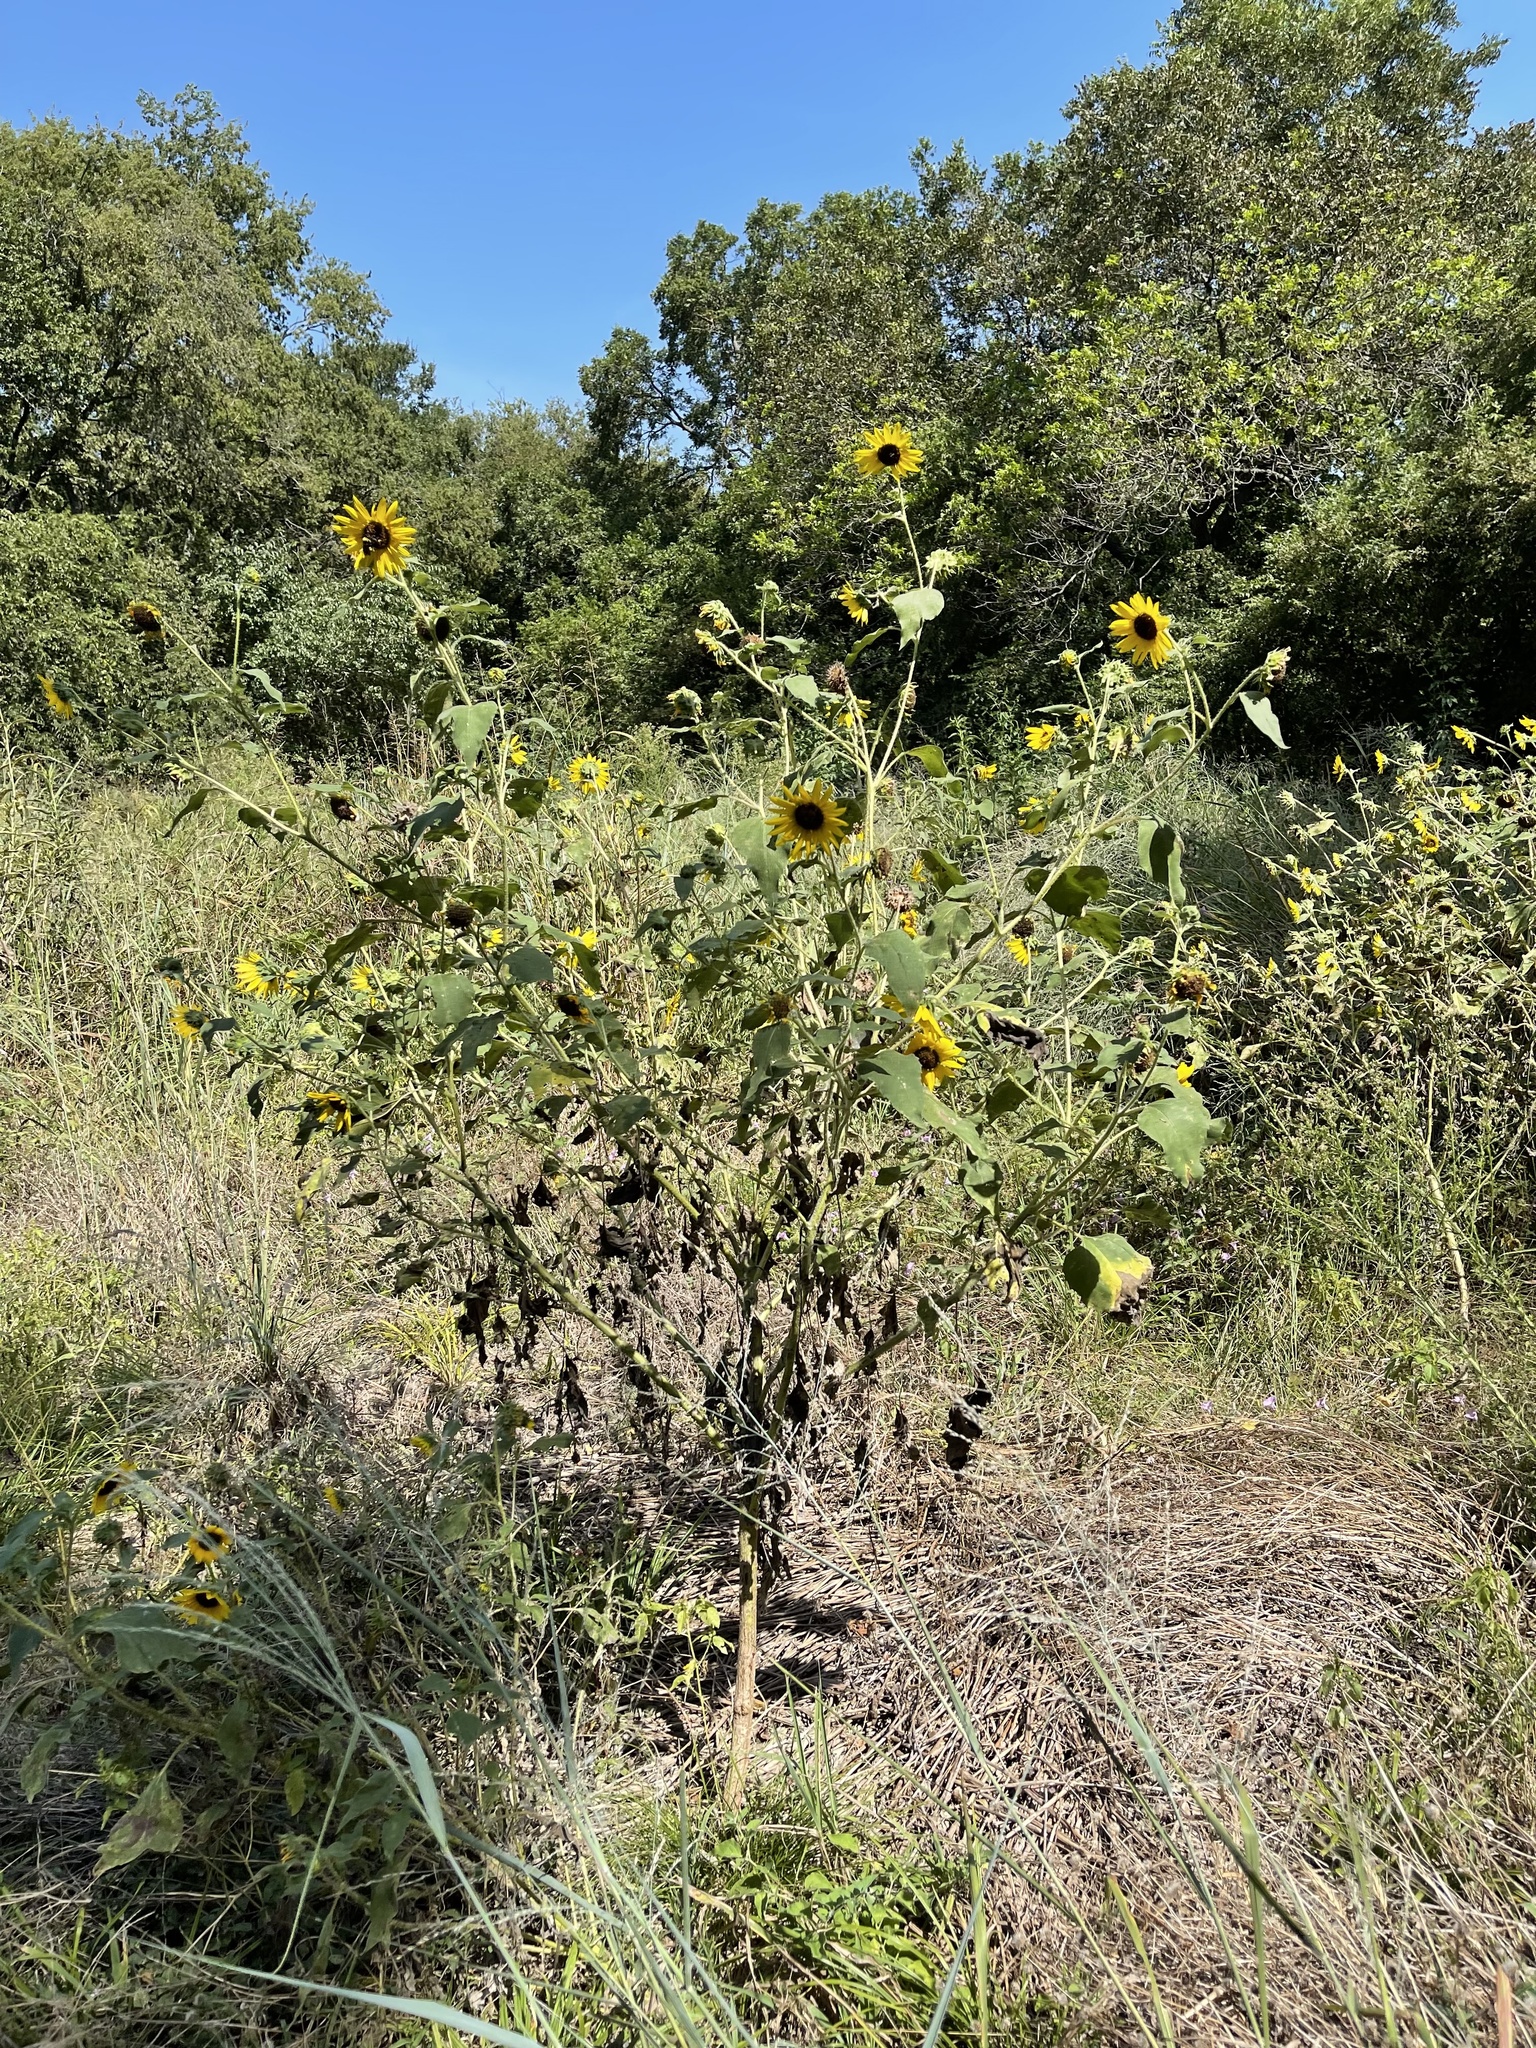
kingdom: Plantae
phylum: Tracheophyta
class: Magnoliopsida
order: Asterales
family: Asteraceae
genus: Helianthus
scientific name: Helianthus annuus
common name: Sunflower
